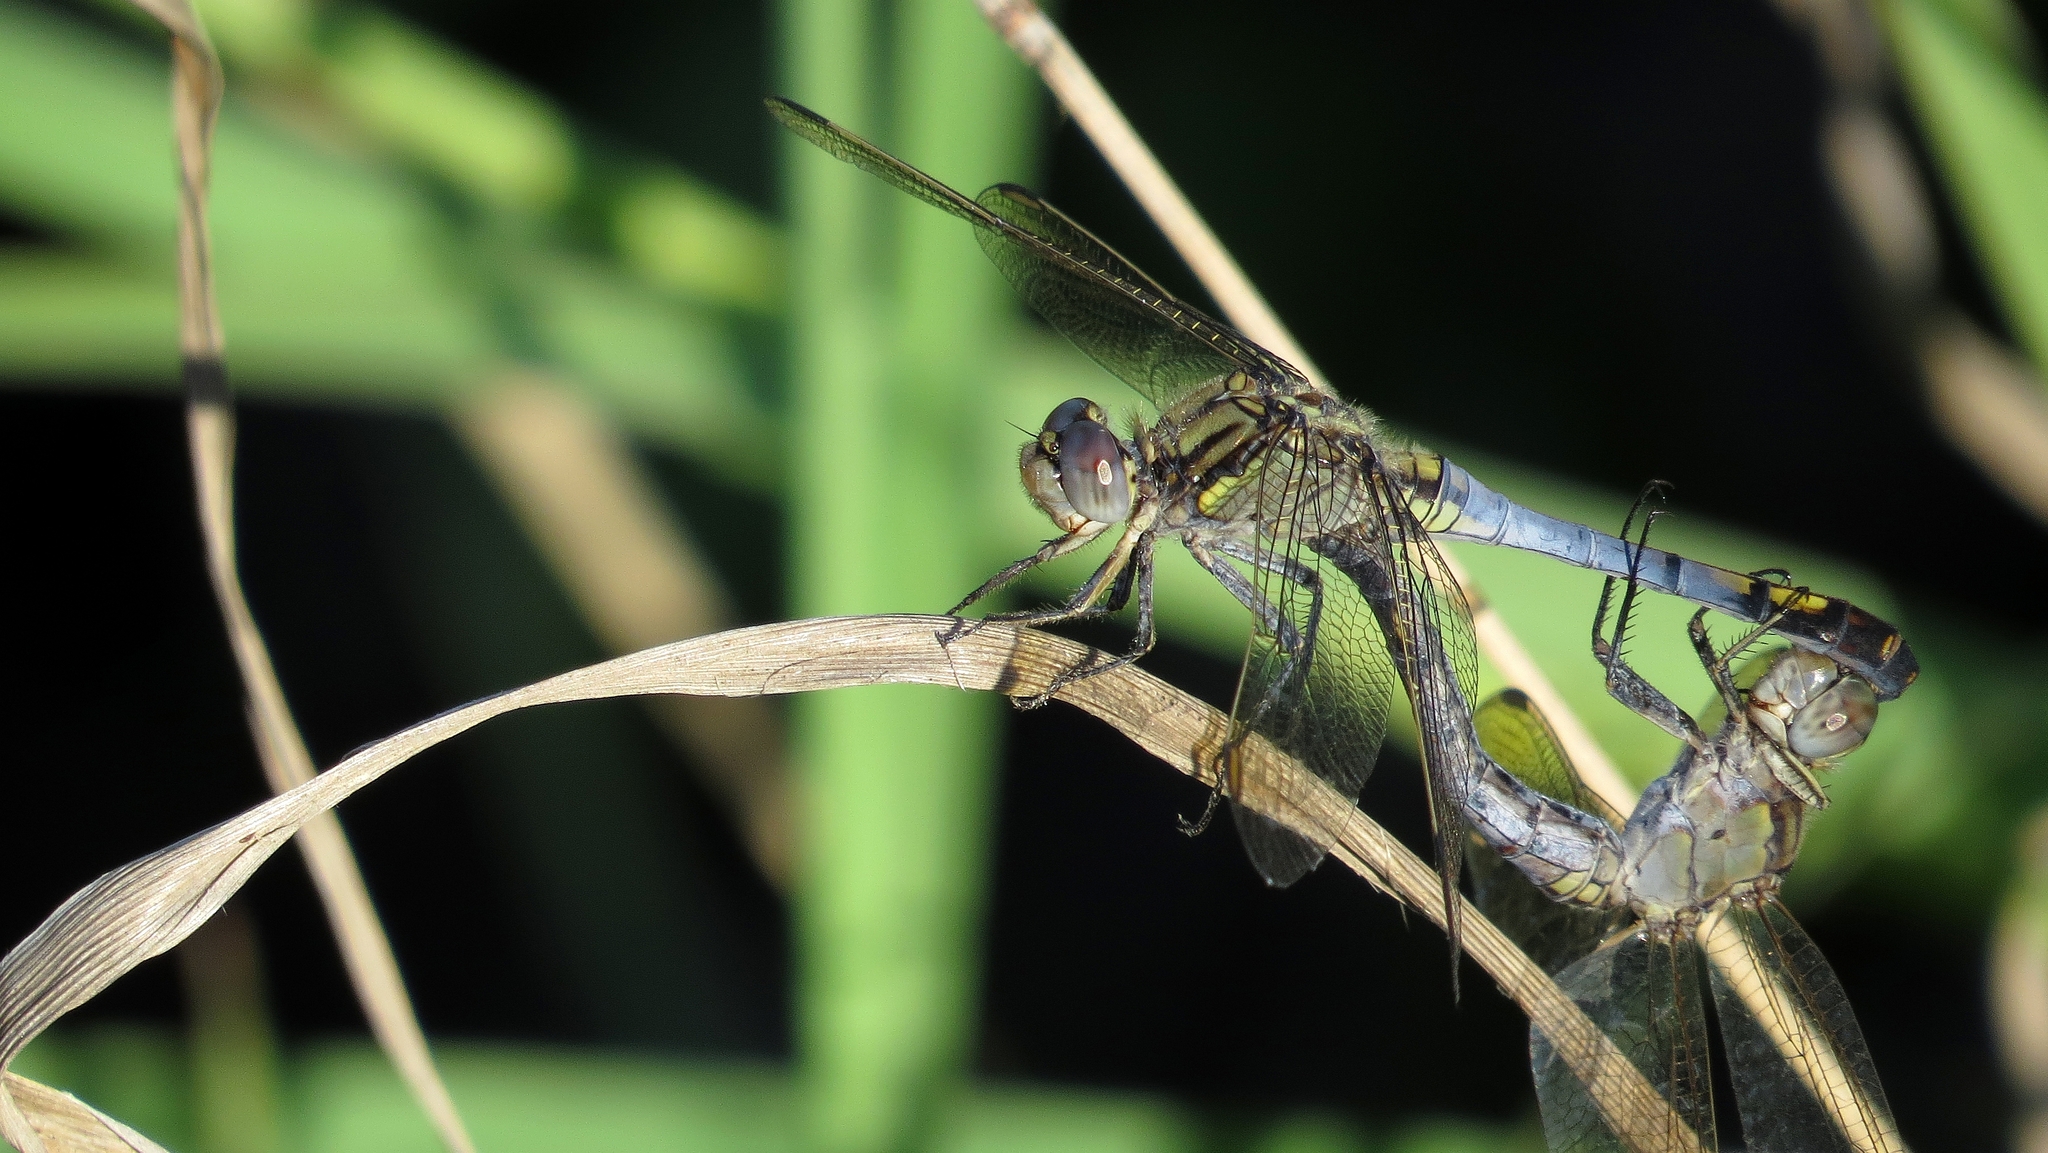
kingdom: Animalia
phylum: Arthropoda
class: Insecta
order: Odonata
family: Libellulidae
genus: Orthetrum
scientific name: Orthetrum caledonicum
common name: Blue skimmer
